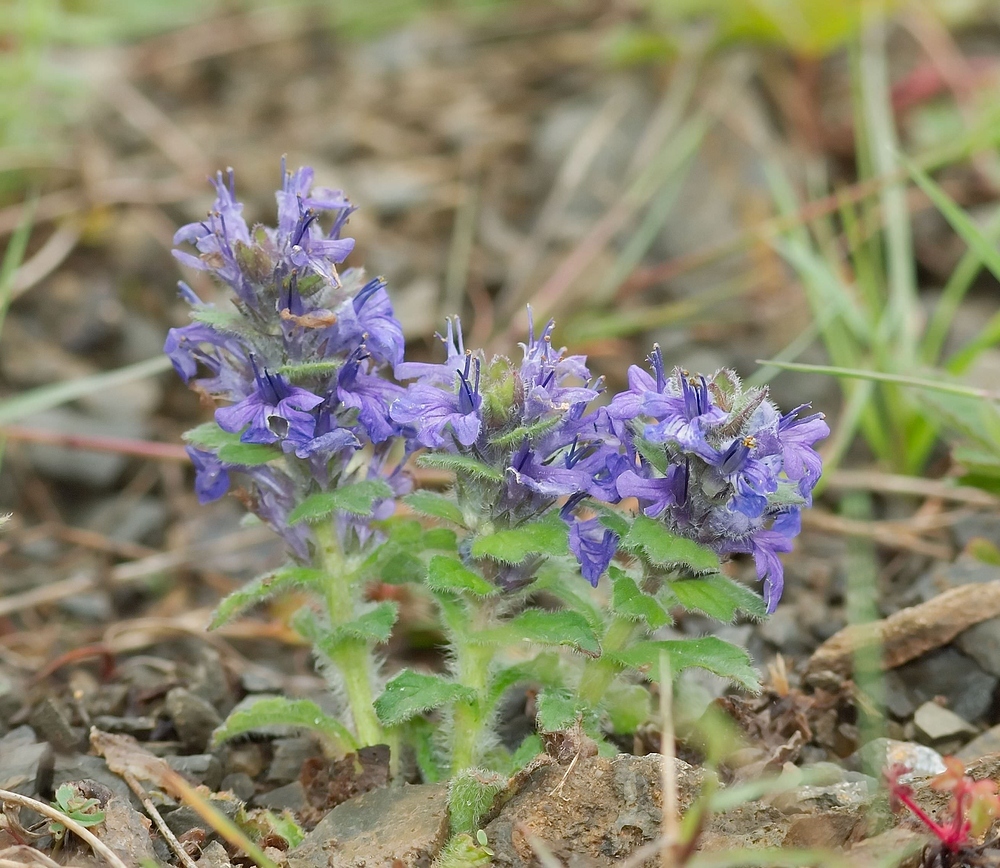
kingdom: Plantae
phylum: Tracheophyta
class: Magnoliopsida
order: Lamiales
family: Lamiaceae
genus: Ajuga
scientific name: Ajuga genevensis
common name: Blue bugle
